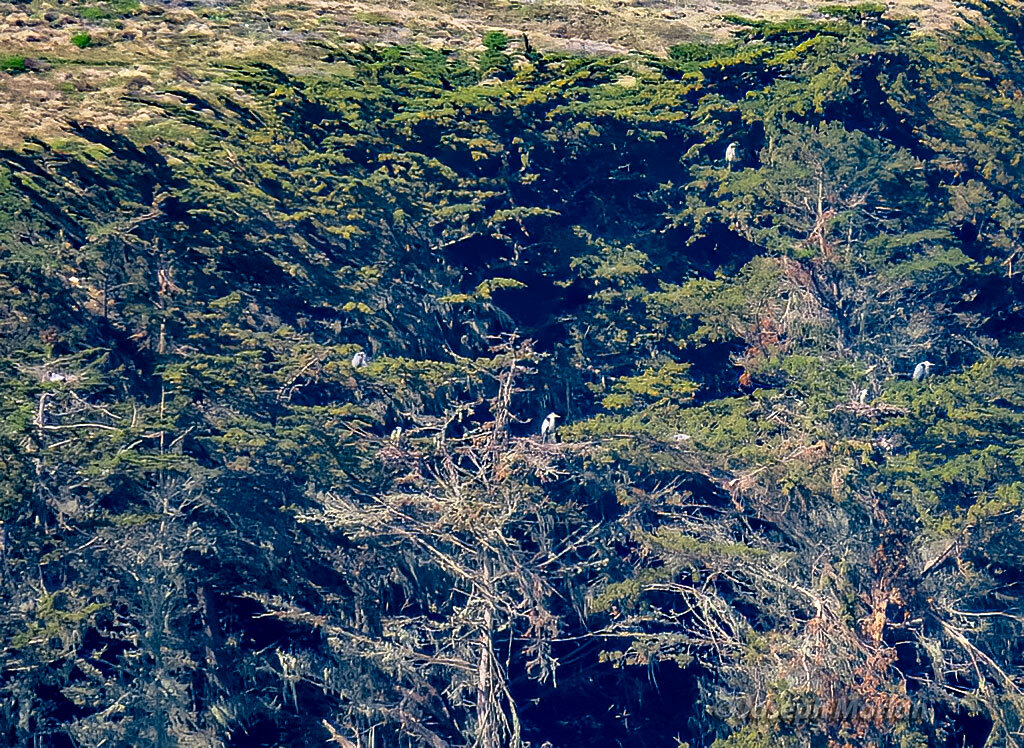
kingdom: Animalia
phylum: Chordata
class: Aves
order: Pelecaniformes
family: Ardeidae
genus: Ardea
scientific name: Ardea herodias
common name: Great blue heron
